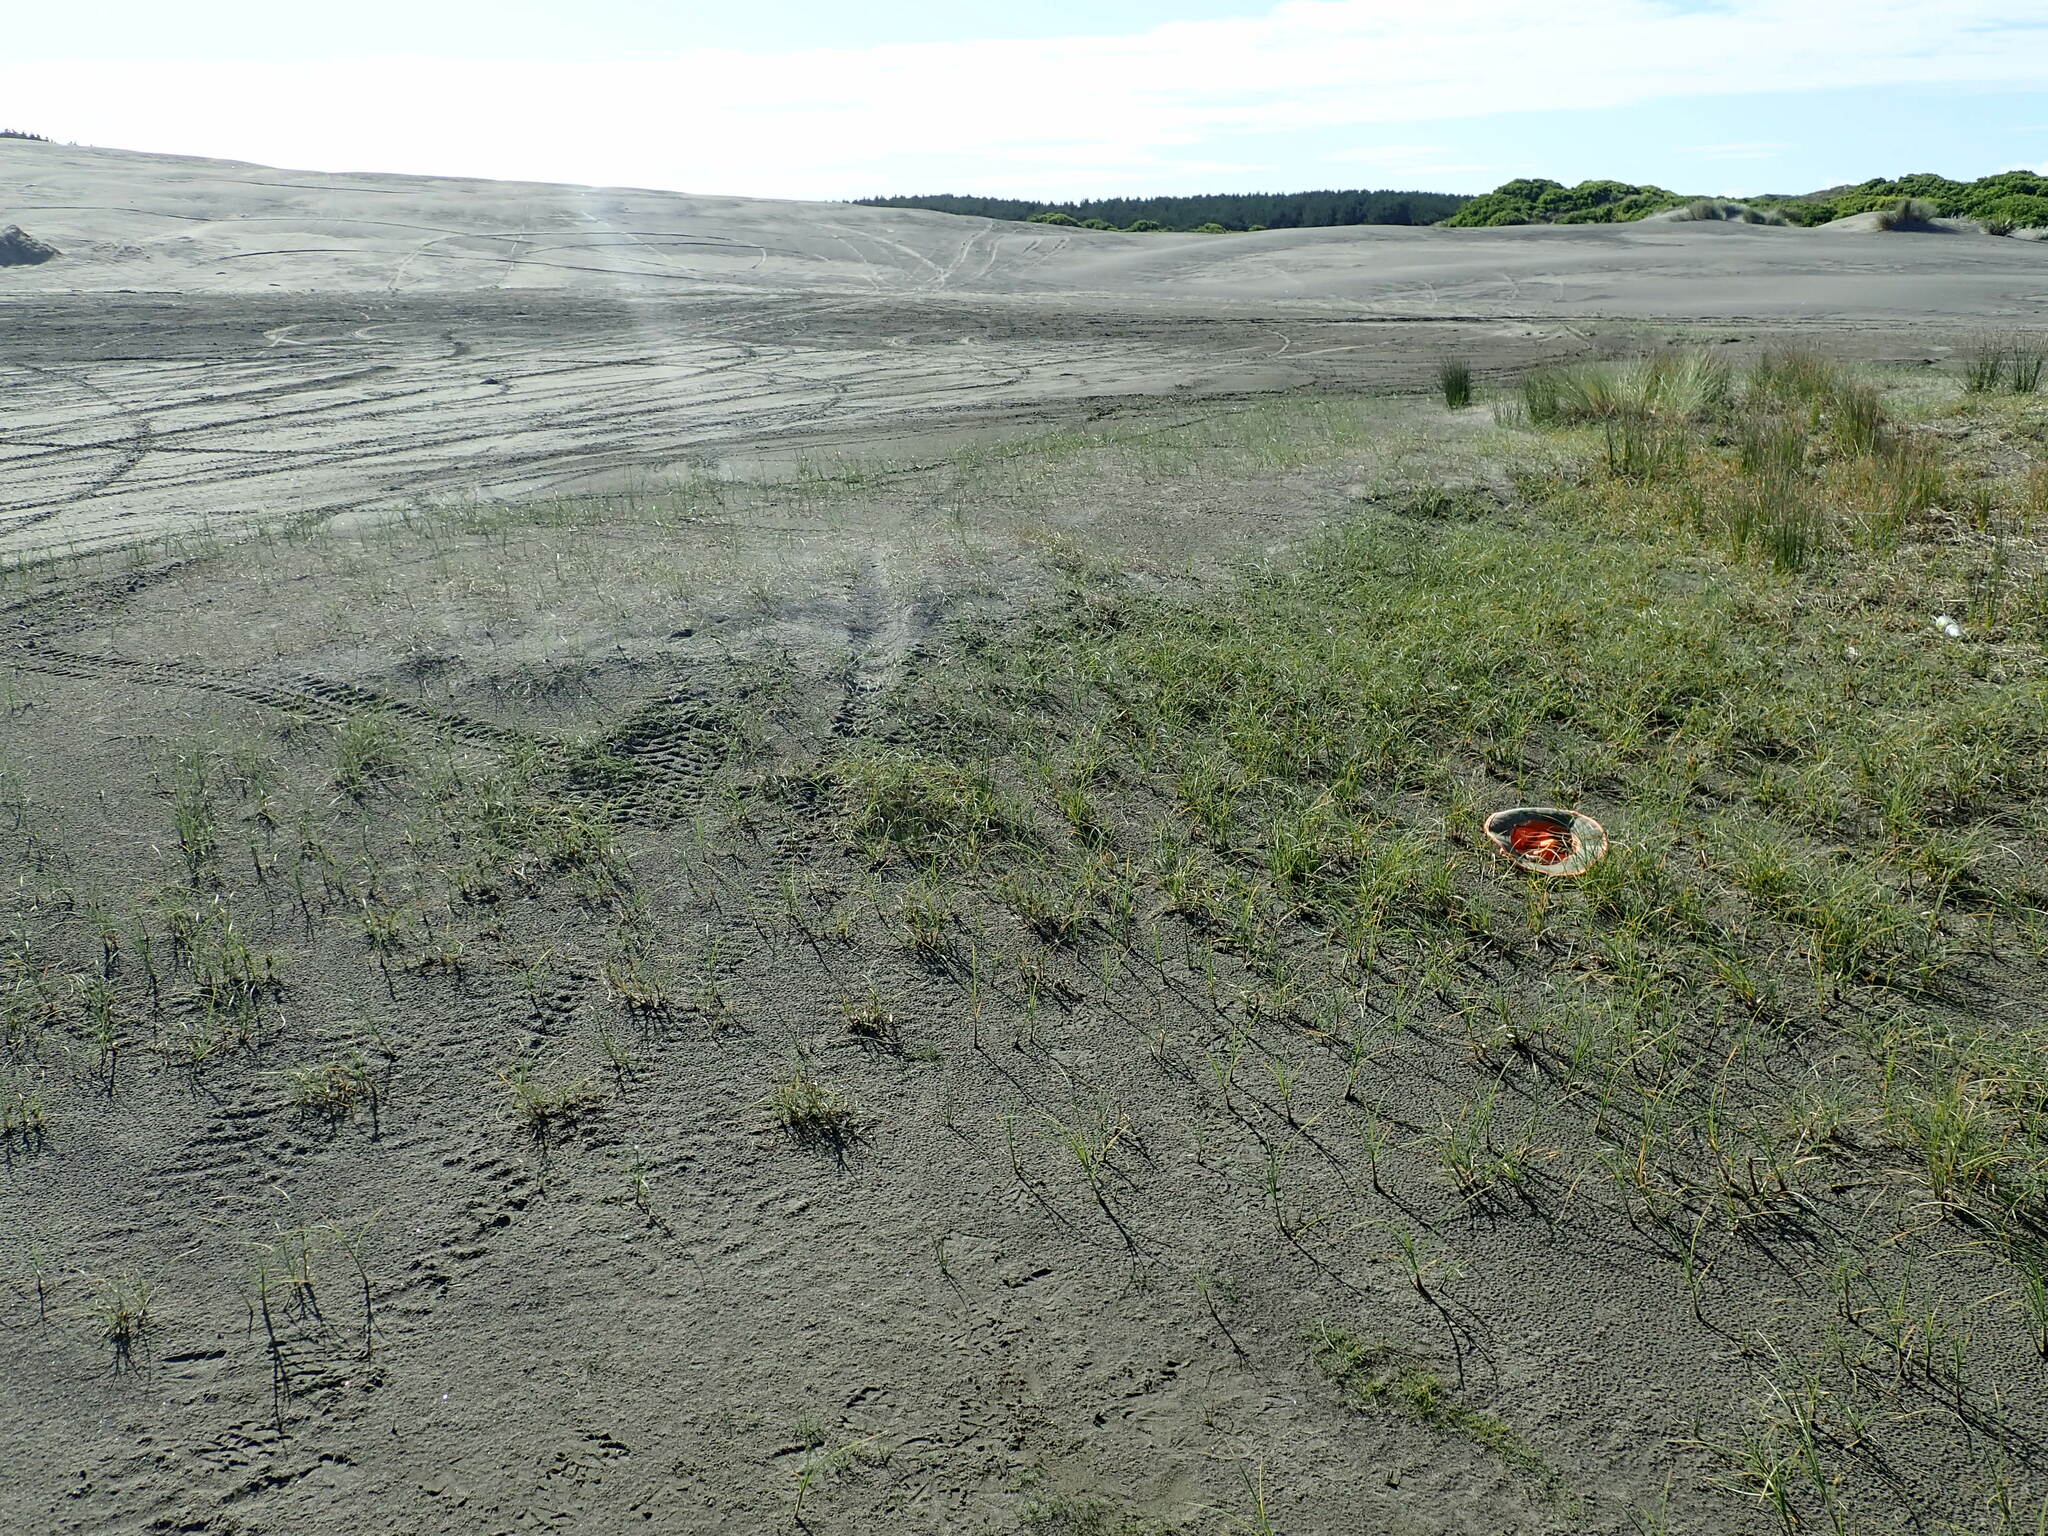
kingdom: Plantae
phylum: Tracheophyta
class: Magnoliopsida
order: Lamiales
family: Scrophulariaceae
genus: Limosella
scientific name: Limosella australis
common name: Welsh mudwort
